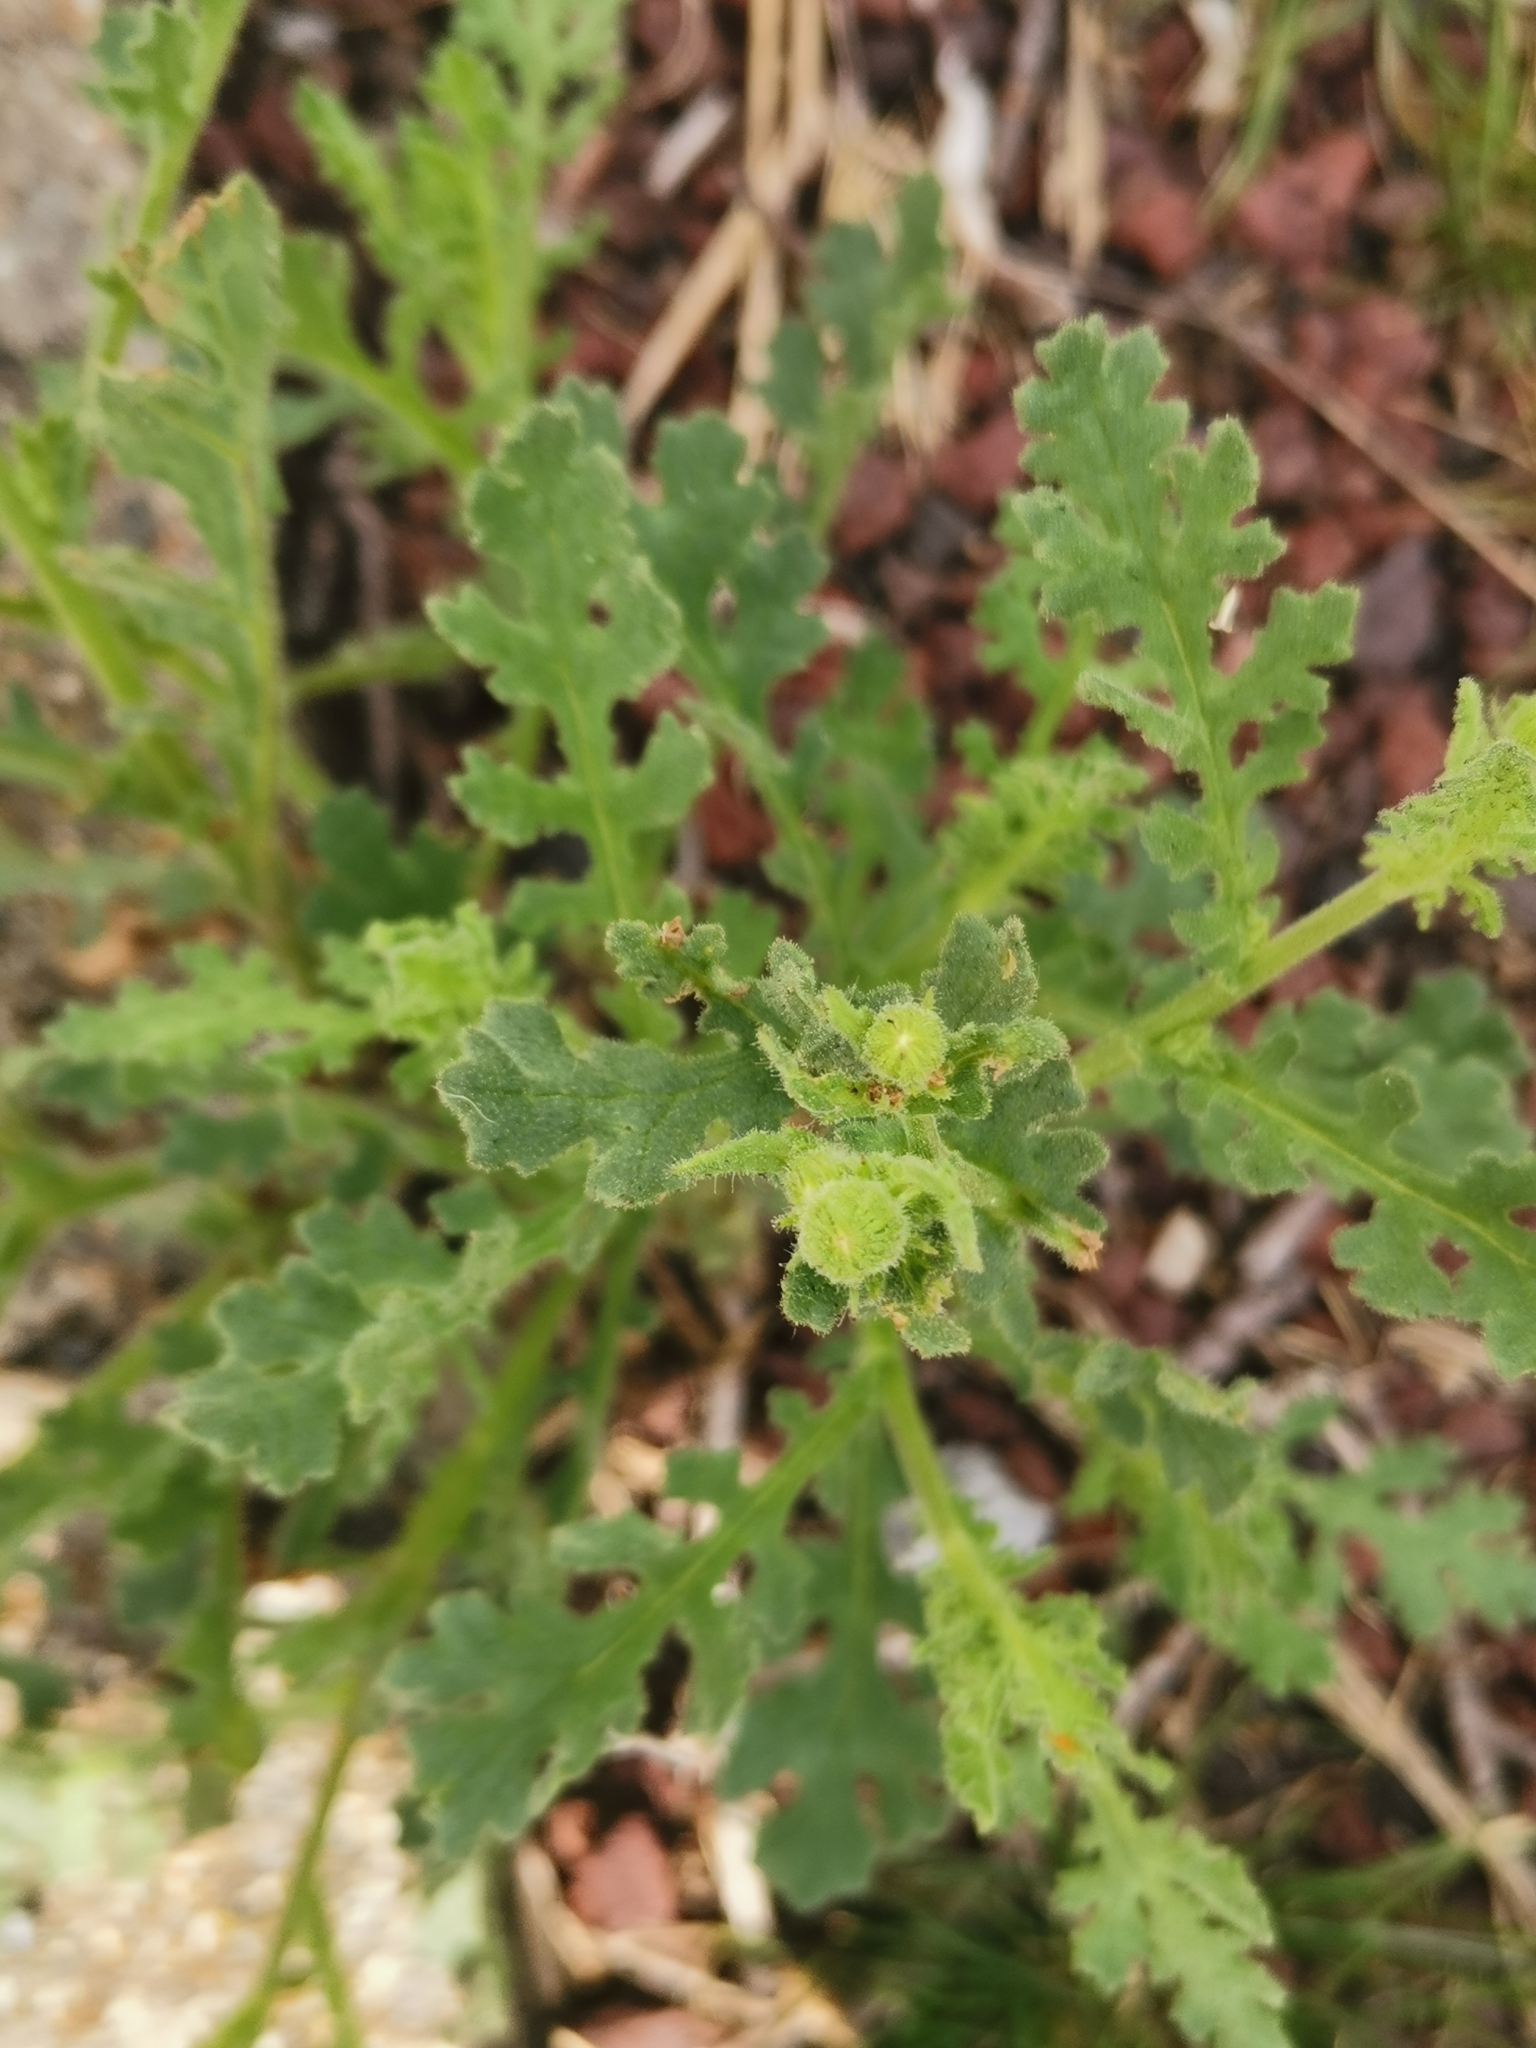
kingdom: Plantae
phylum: Tracheophyta
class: Magnoliopsida
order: Asterales
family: Asteraceae
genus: Senecio
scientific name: Senecio viscosus
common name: Sticky groundsel
